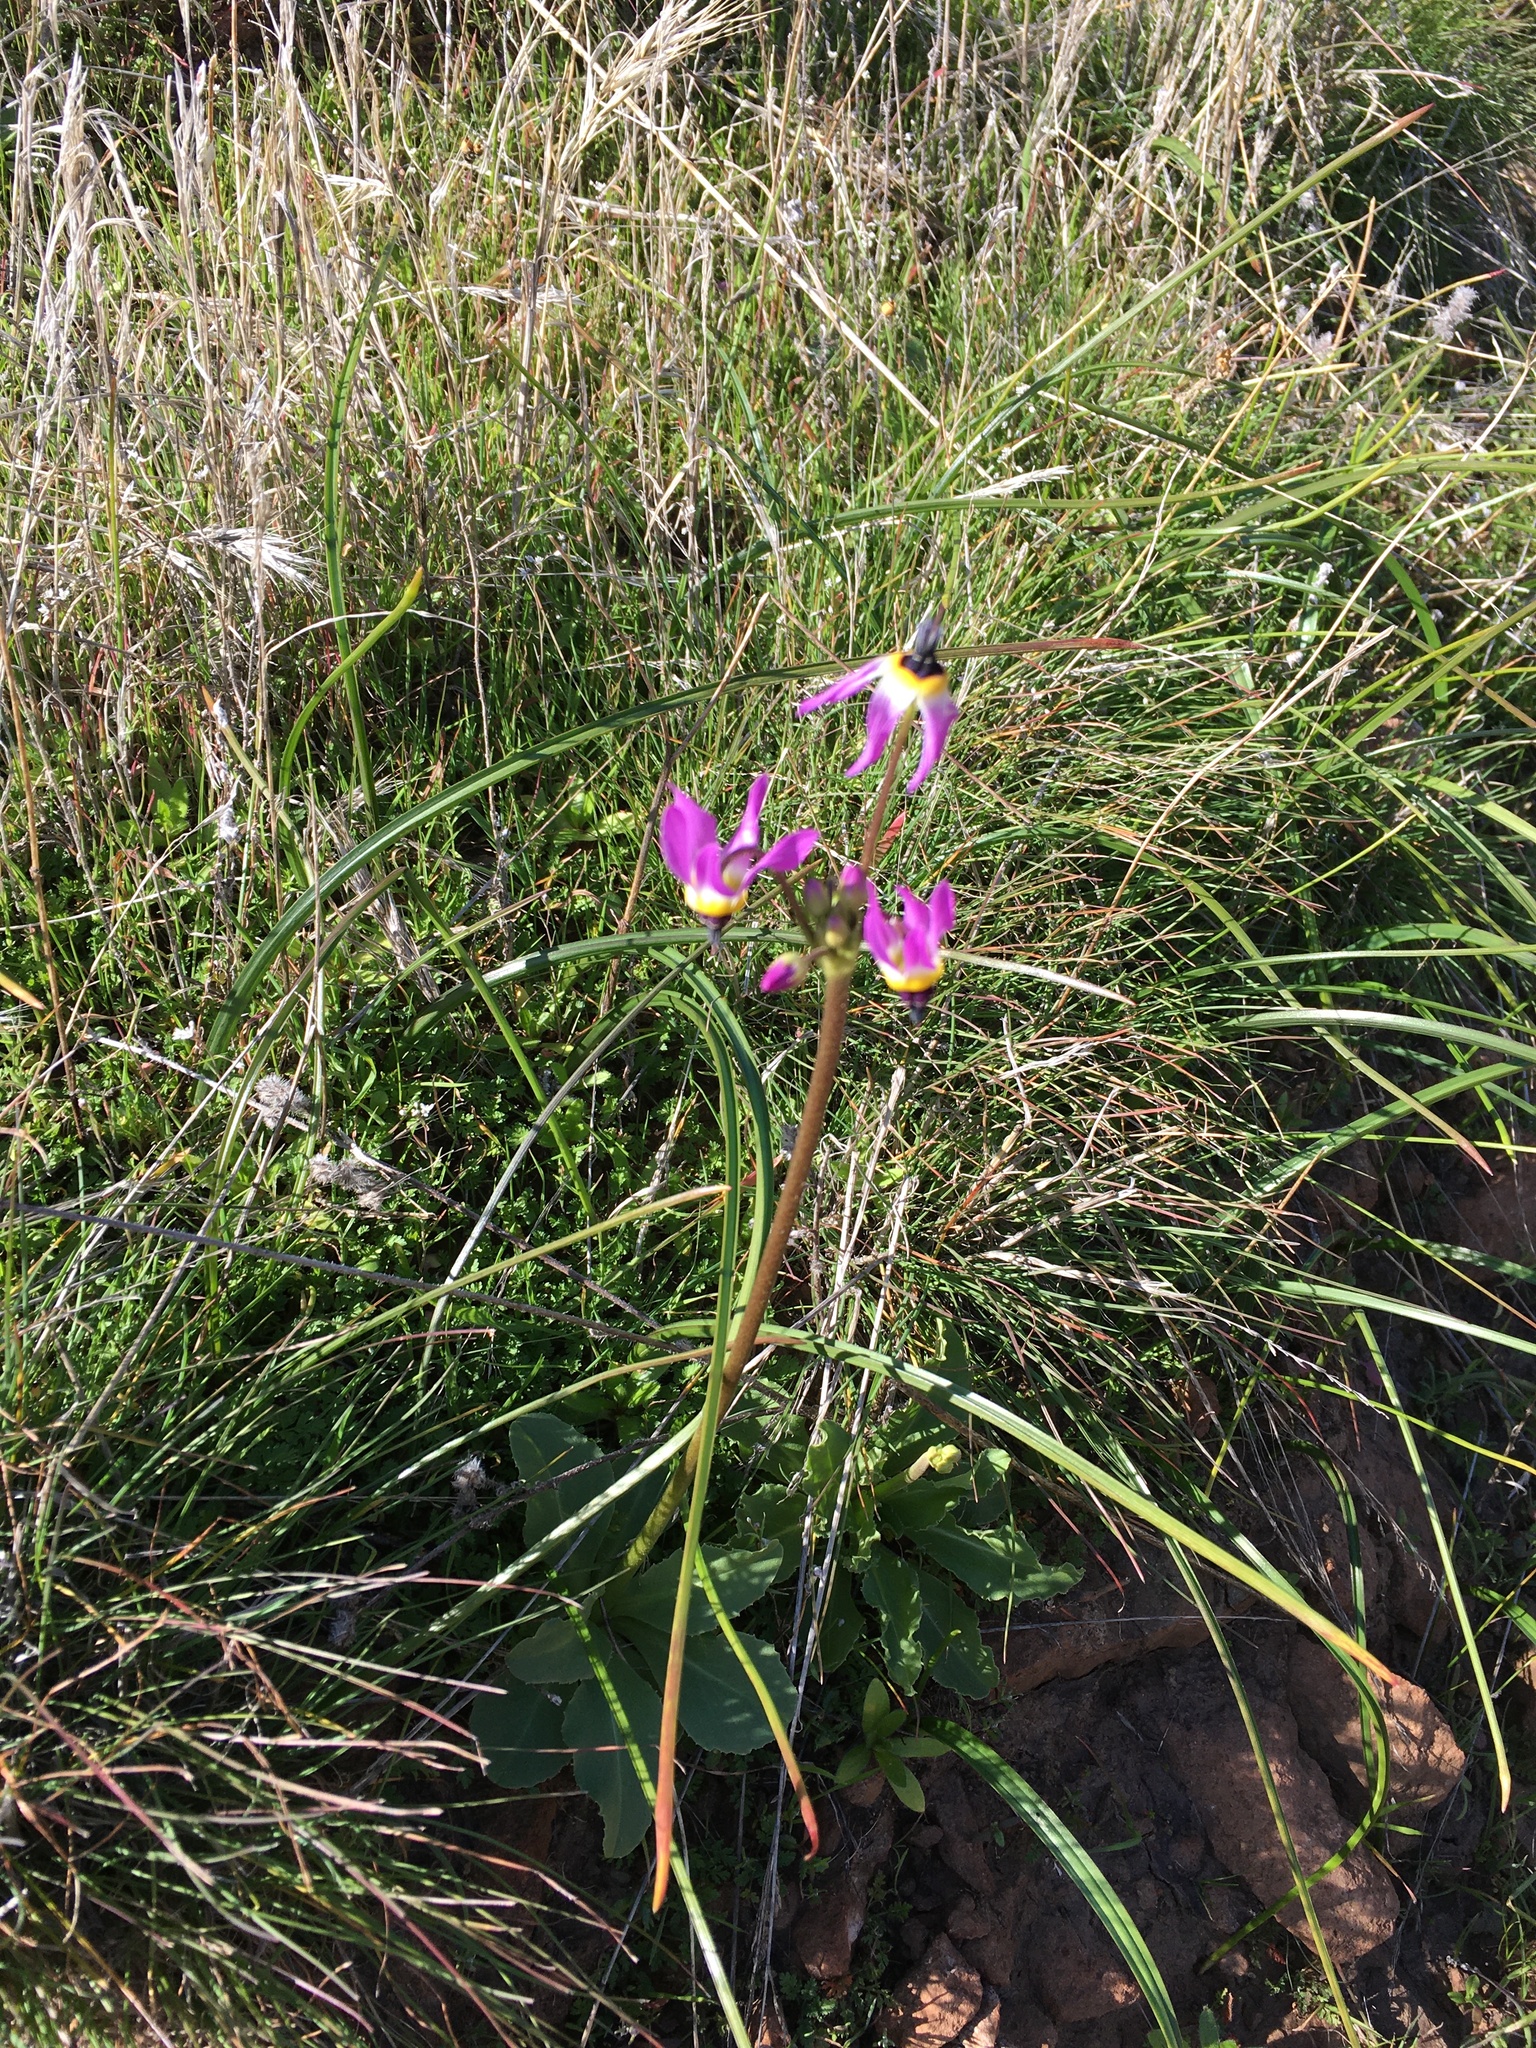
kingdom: Plantae
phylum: Tracheophyta
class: Magnoliopsida
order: Ericales
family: Primulaceae
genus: Dodecatheon
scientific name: Dodecatheon clevelandii
